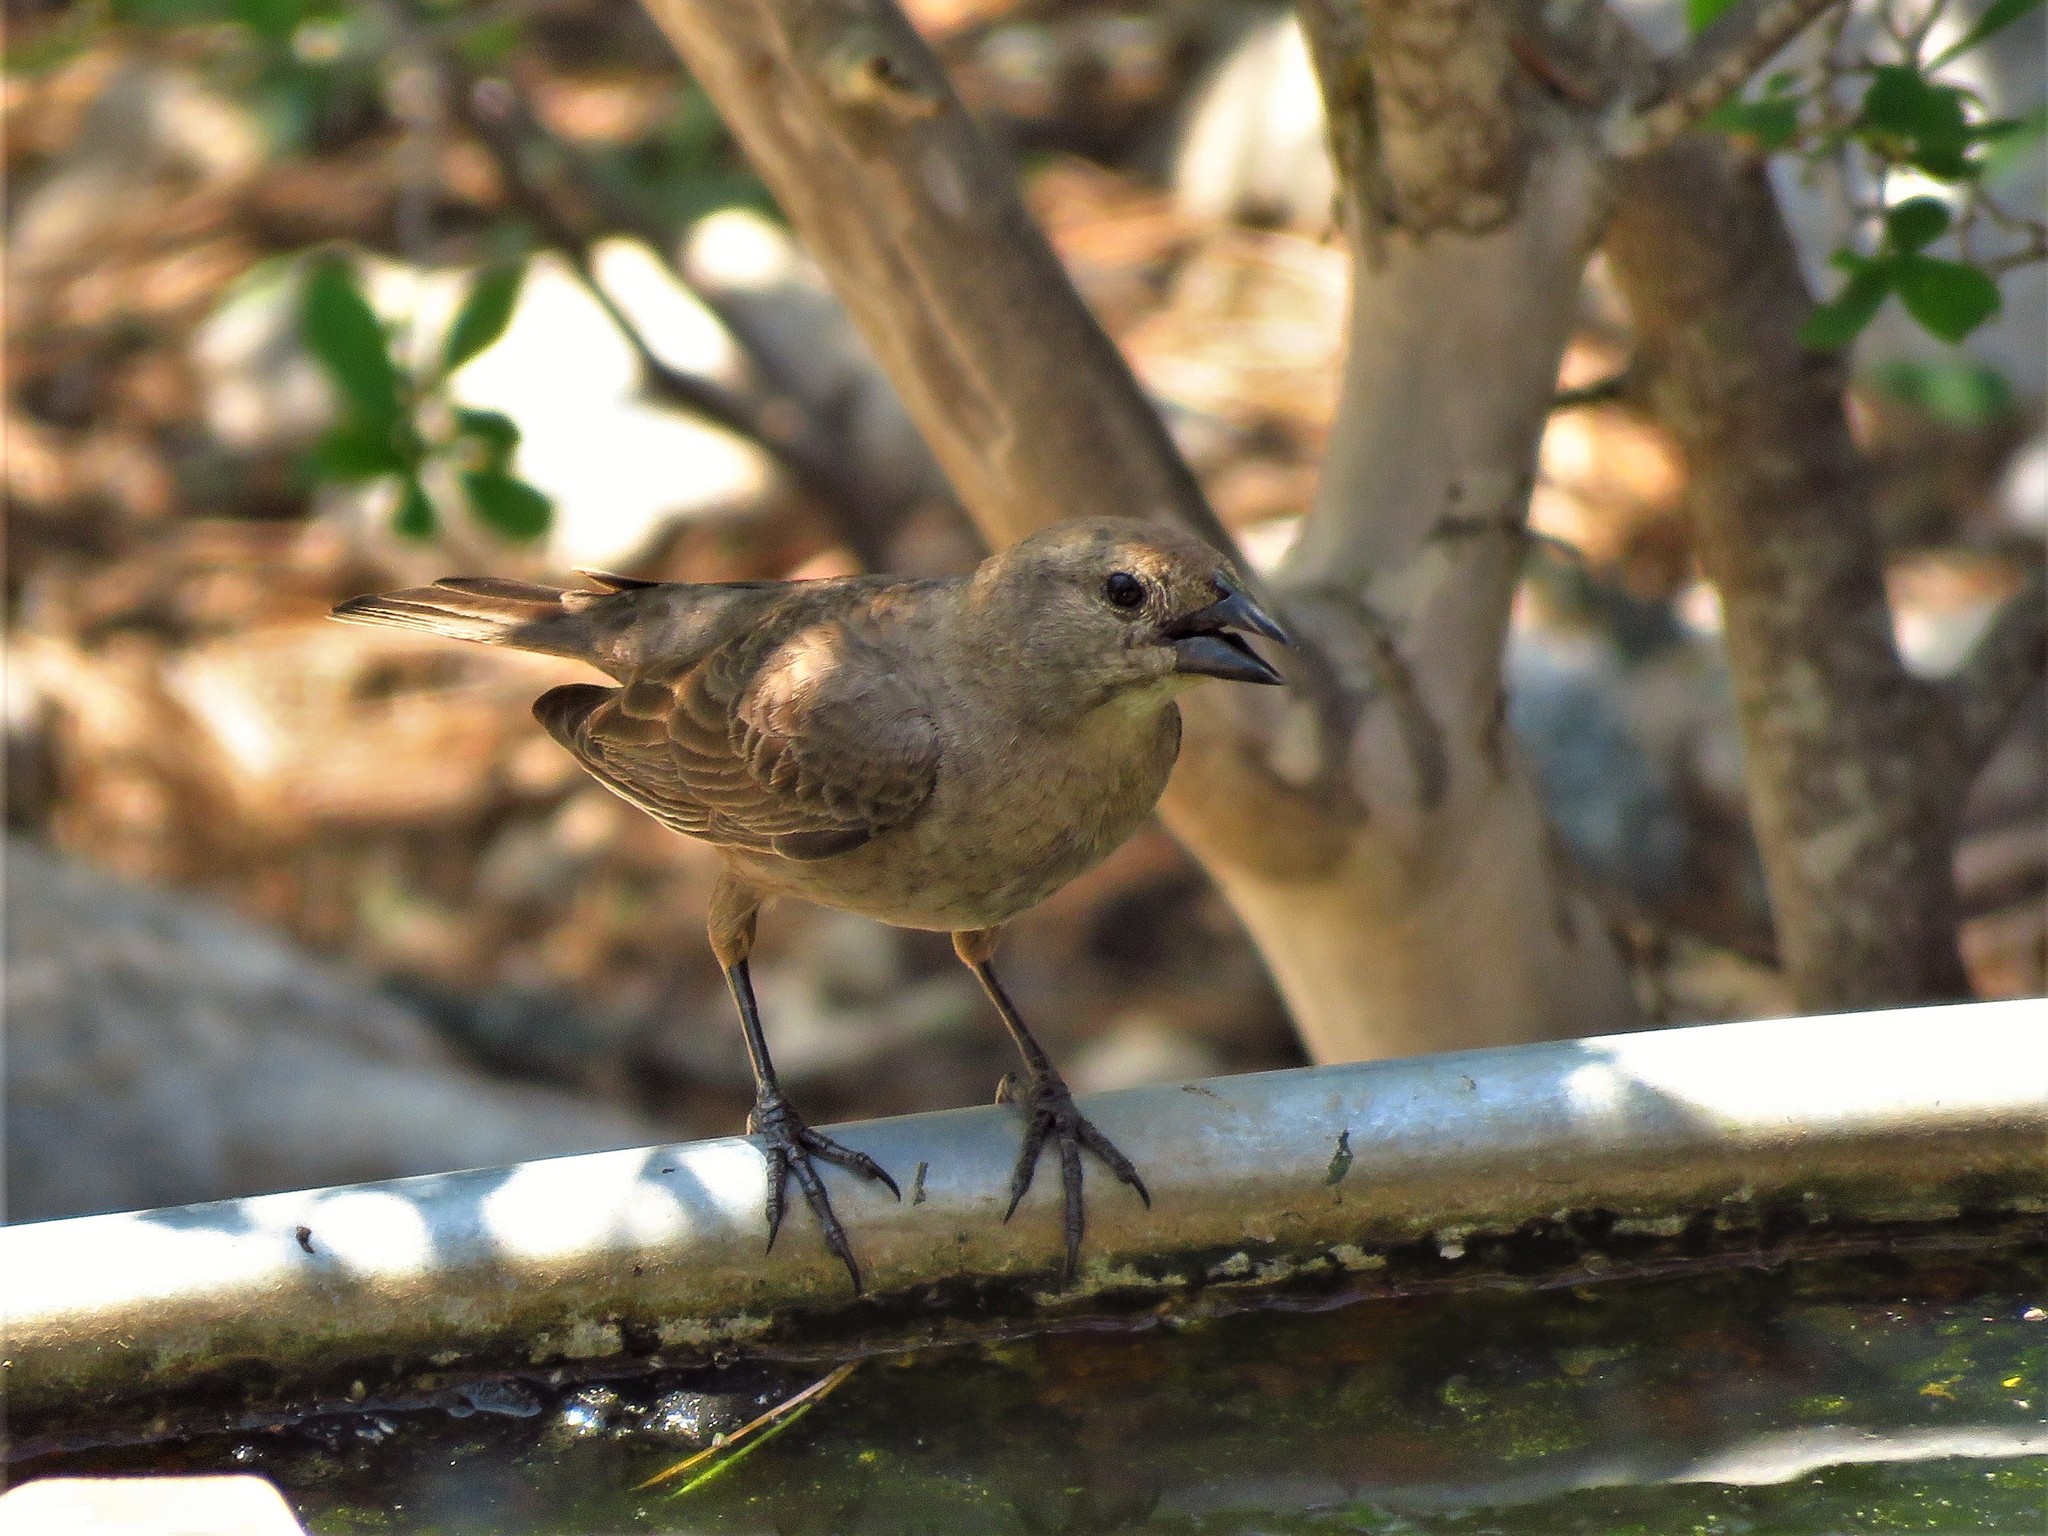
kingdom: Animalia
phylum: Chordata
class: Aves
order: Passeriformes
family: Icteridae
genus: Molothrus
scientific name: Molothrus ater
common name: Brown-headed cowbird
